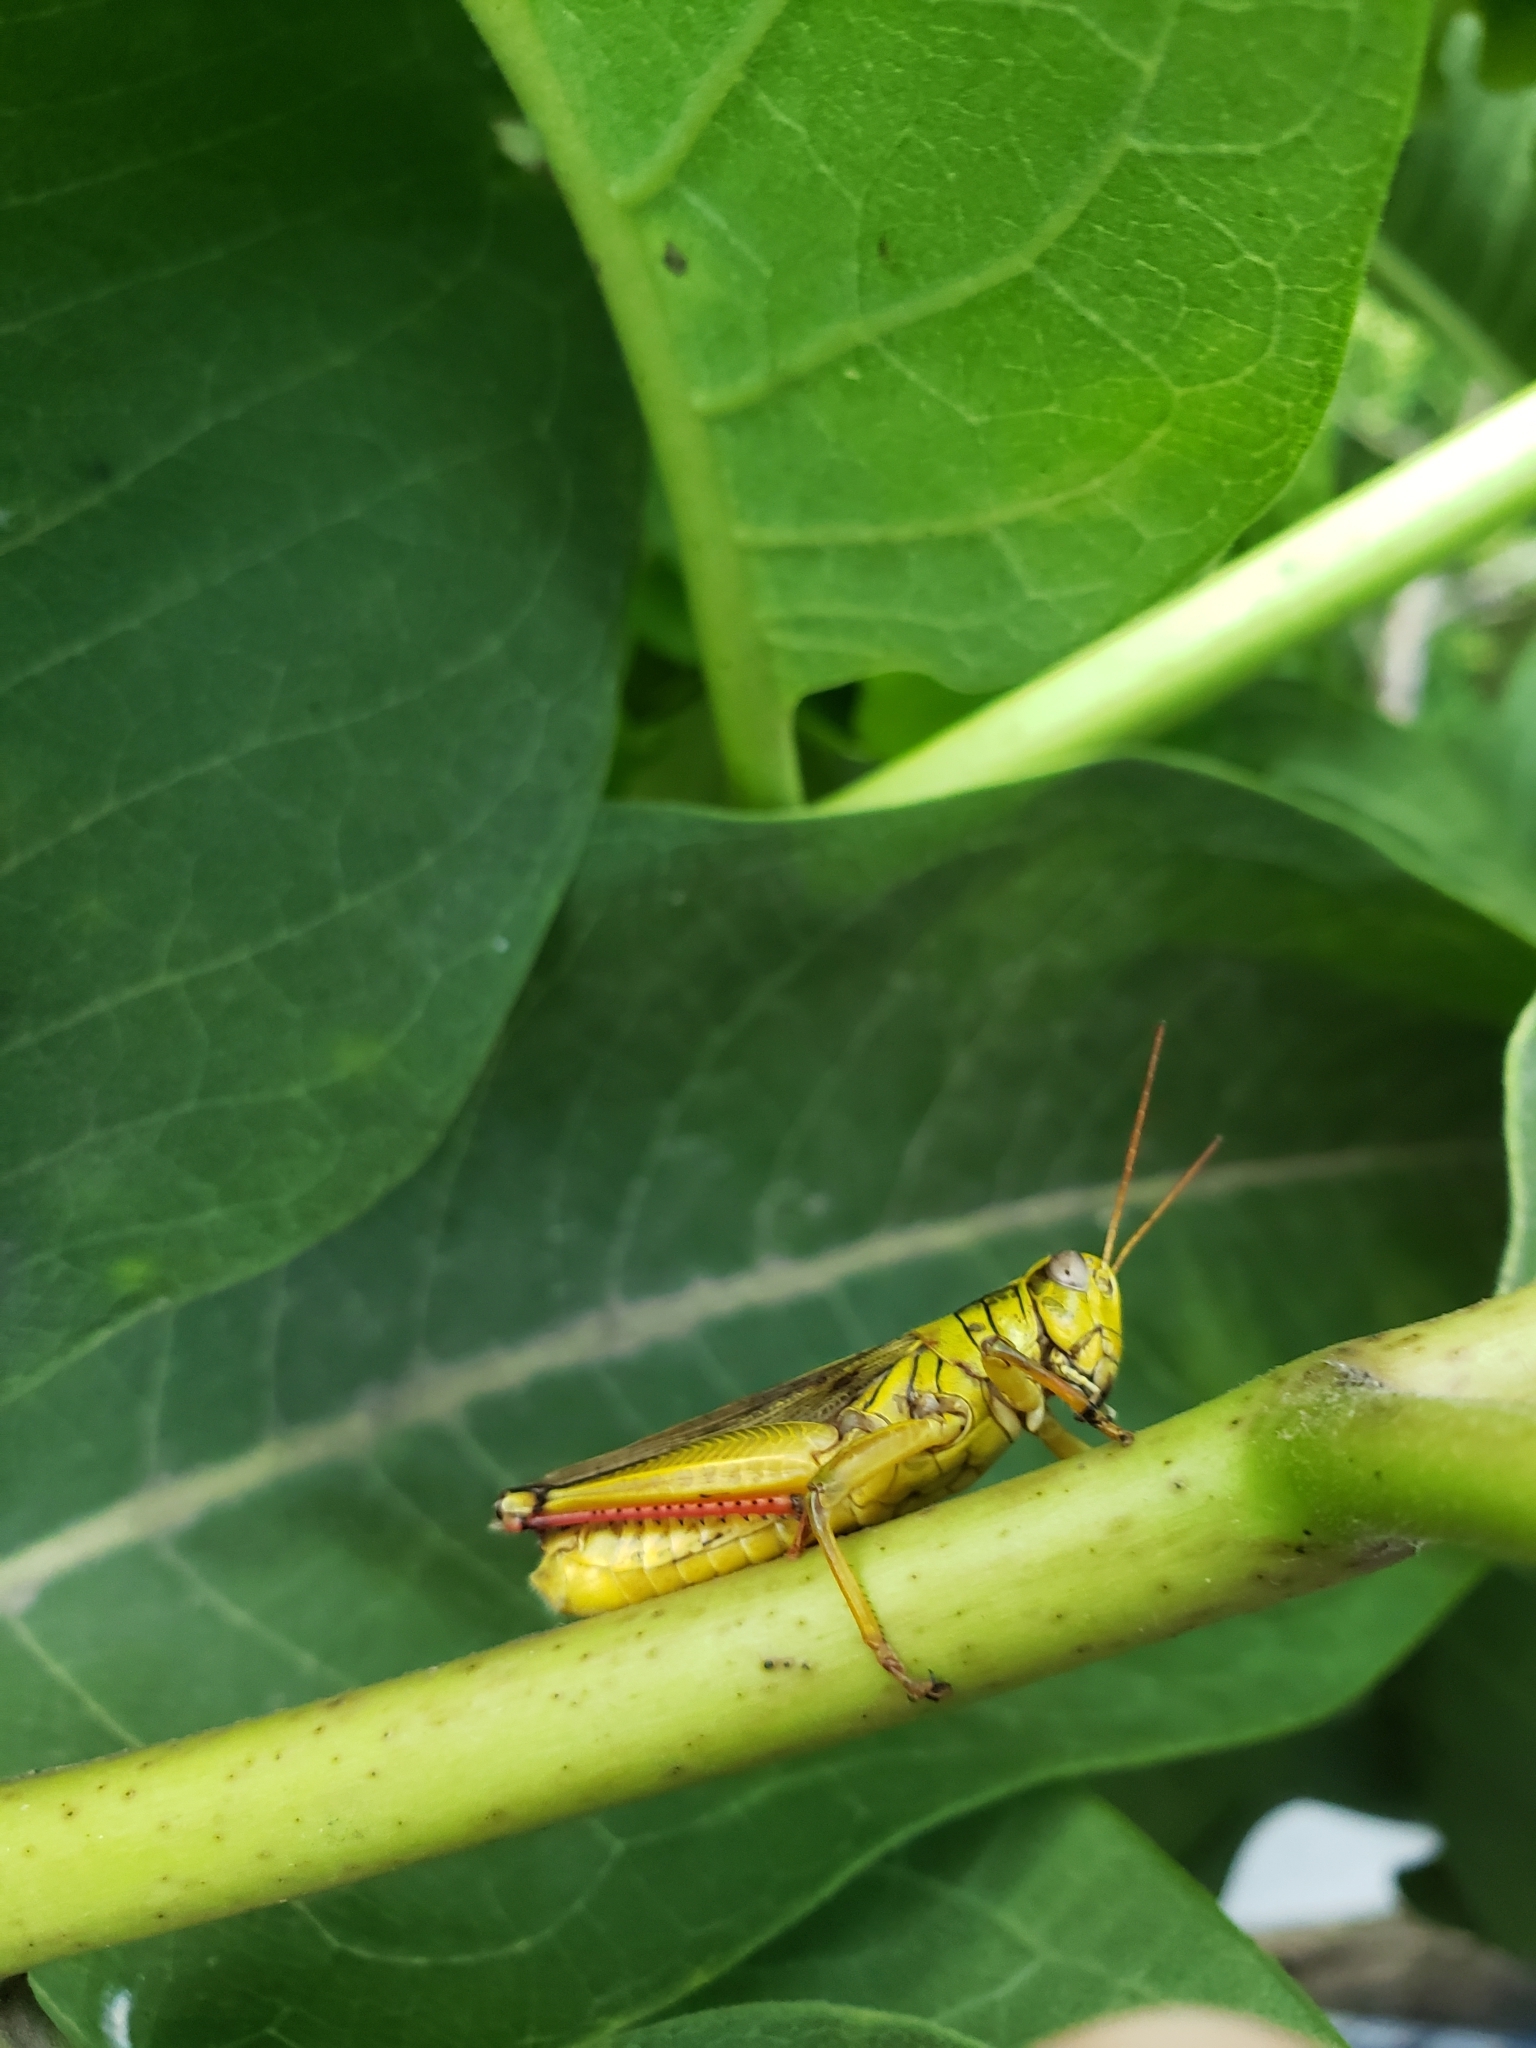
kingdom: Animalia
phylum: Arthropoda
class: Insecta
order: Orthoptera
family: Acrididae
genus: Melanoplus
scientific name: Melanoplus bivittatus
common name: Two-striped grasshopper
